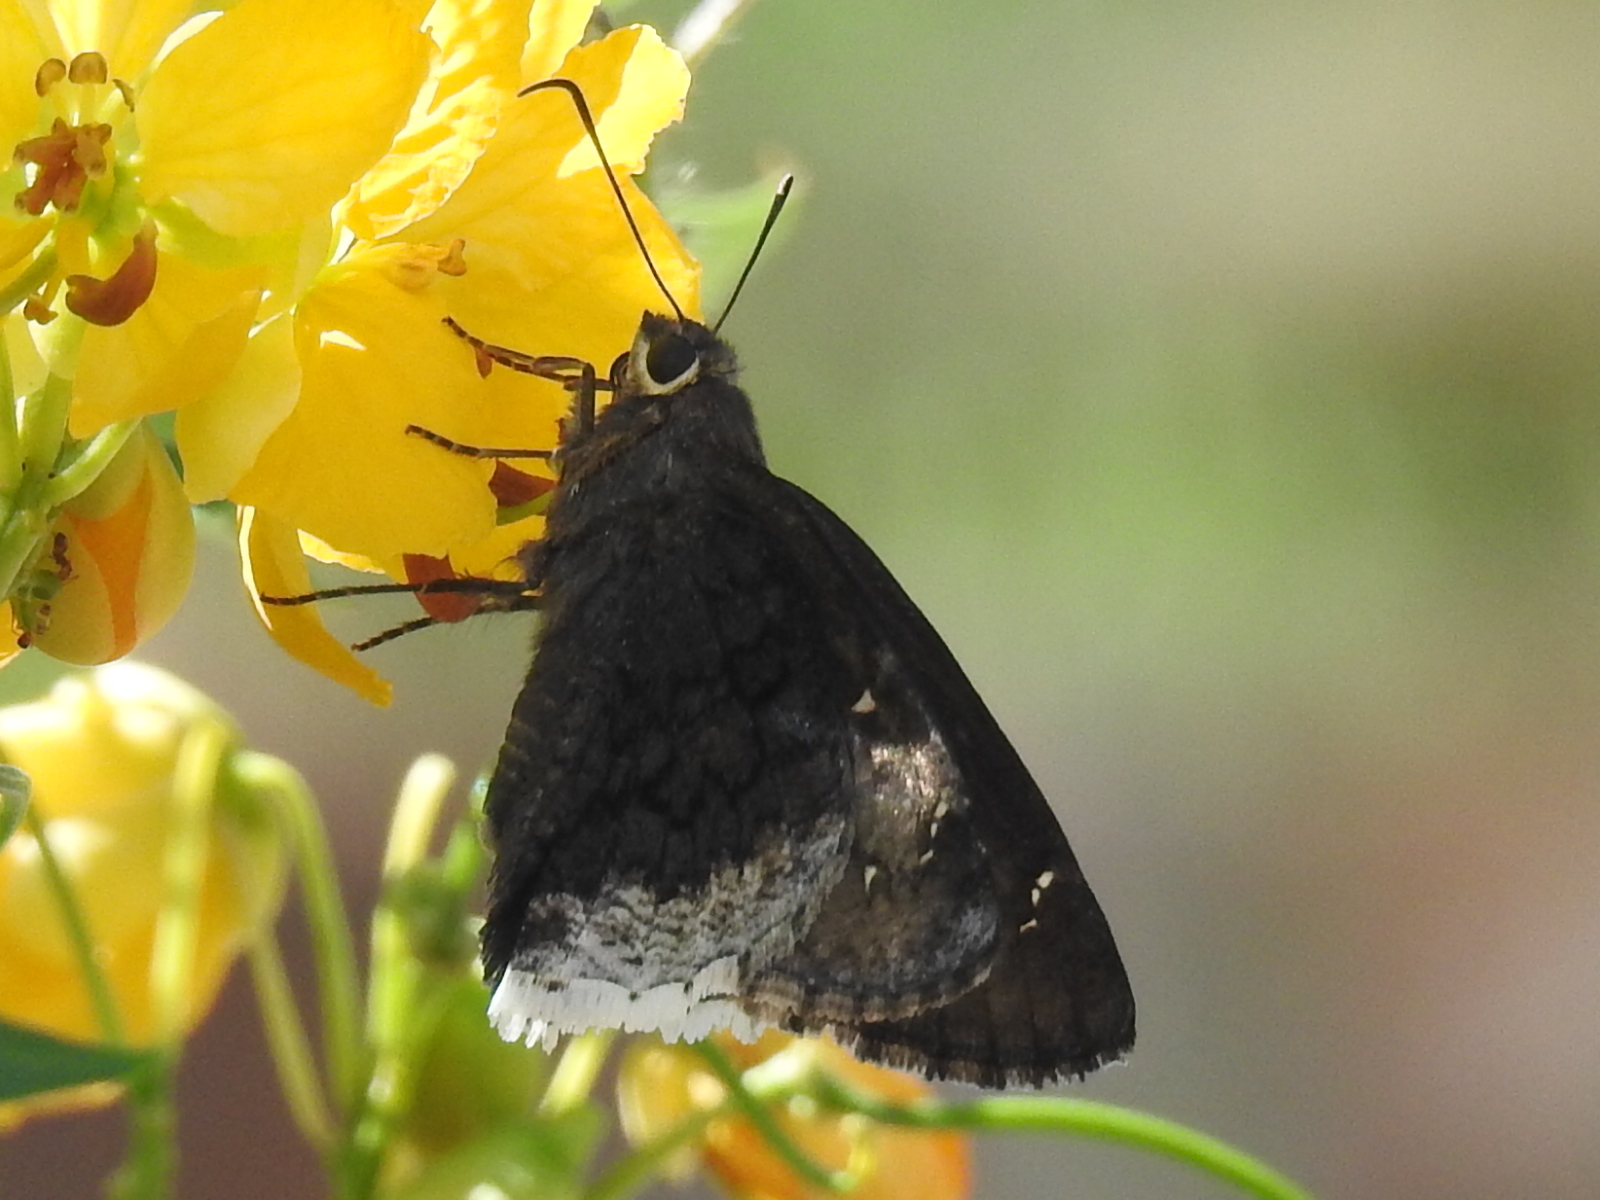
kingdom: Animalia
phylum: Arthropoda
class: Insecta
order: Lepidoptera
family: Hesperiidae
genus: Thorybes
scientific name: Thorybes casica
